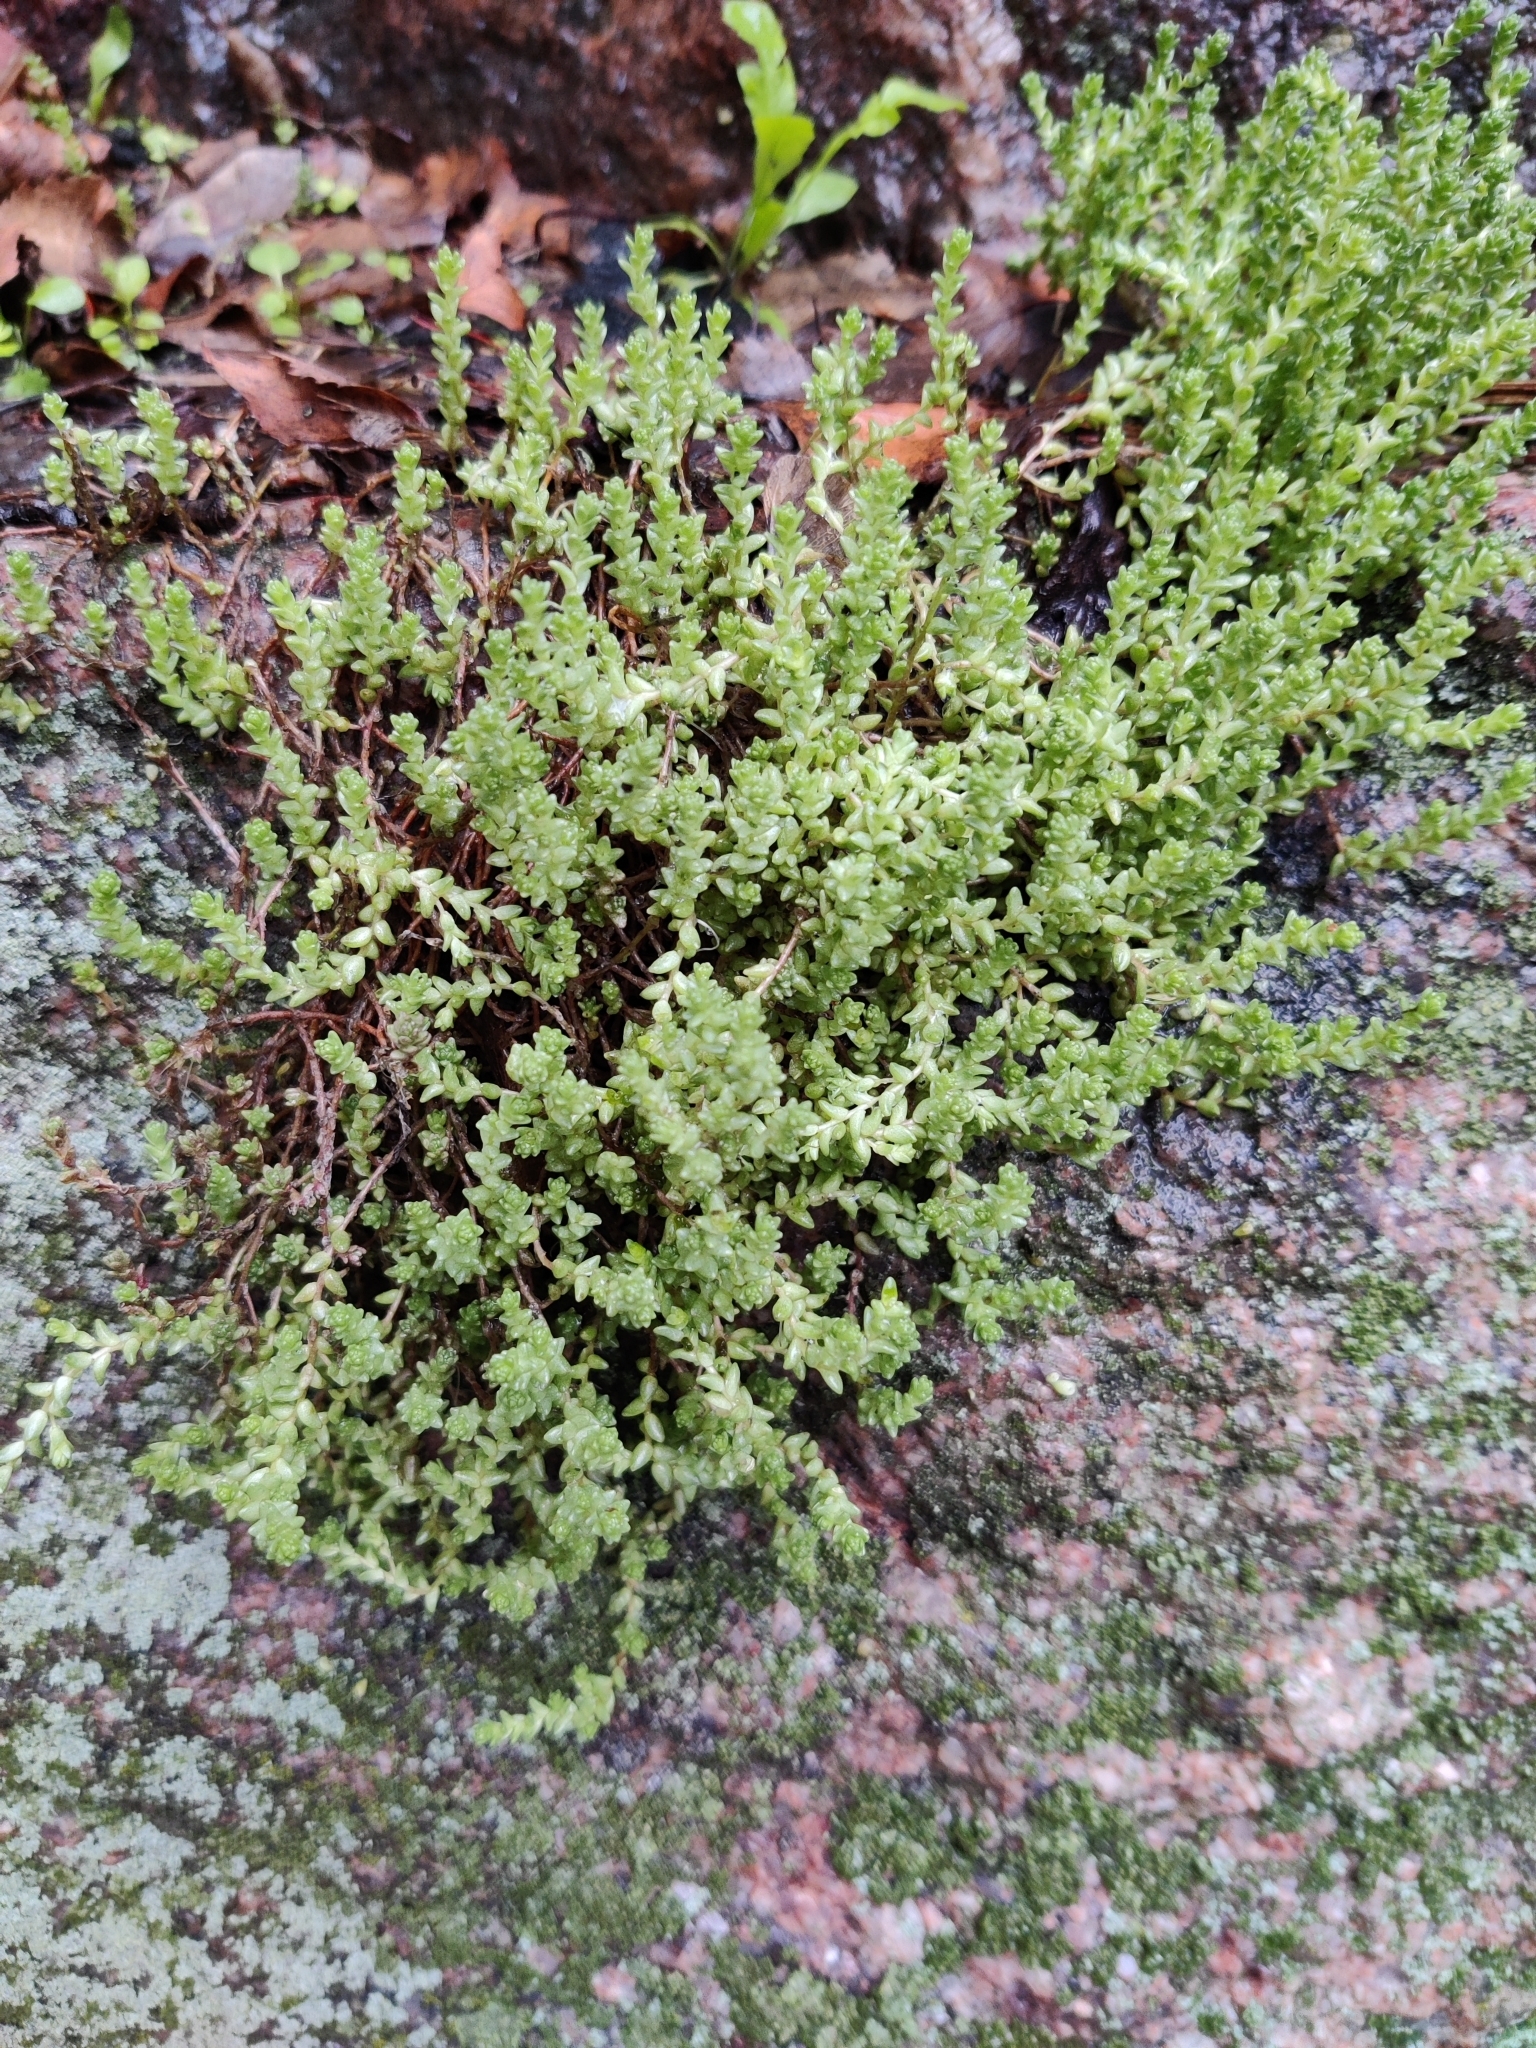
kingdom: Plantae
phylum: Tracheophyta
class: Magnoliopsida
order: Saxifragales
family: Crassulaceae
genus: Sedum
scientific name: Sedum acre
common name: Biting stonecrop
